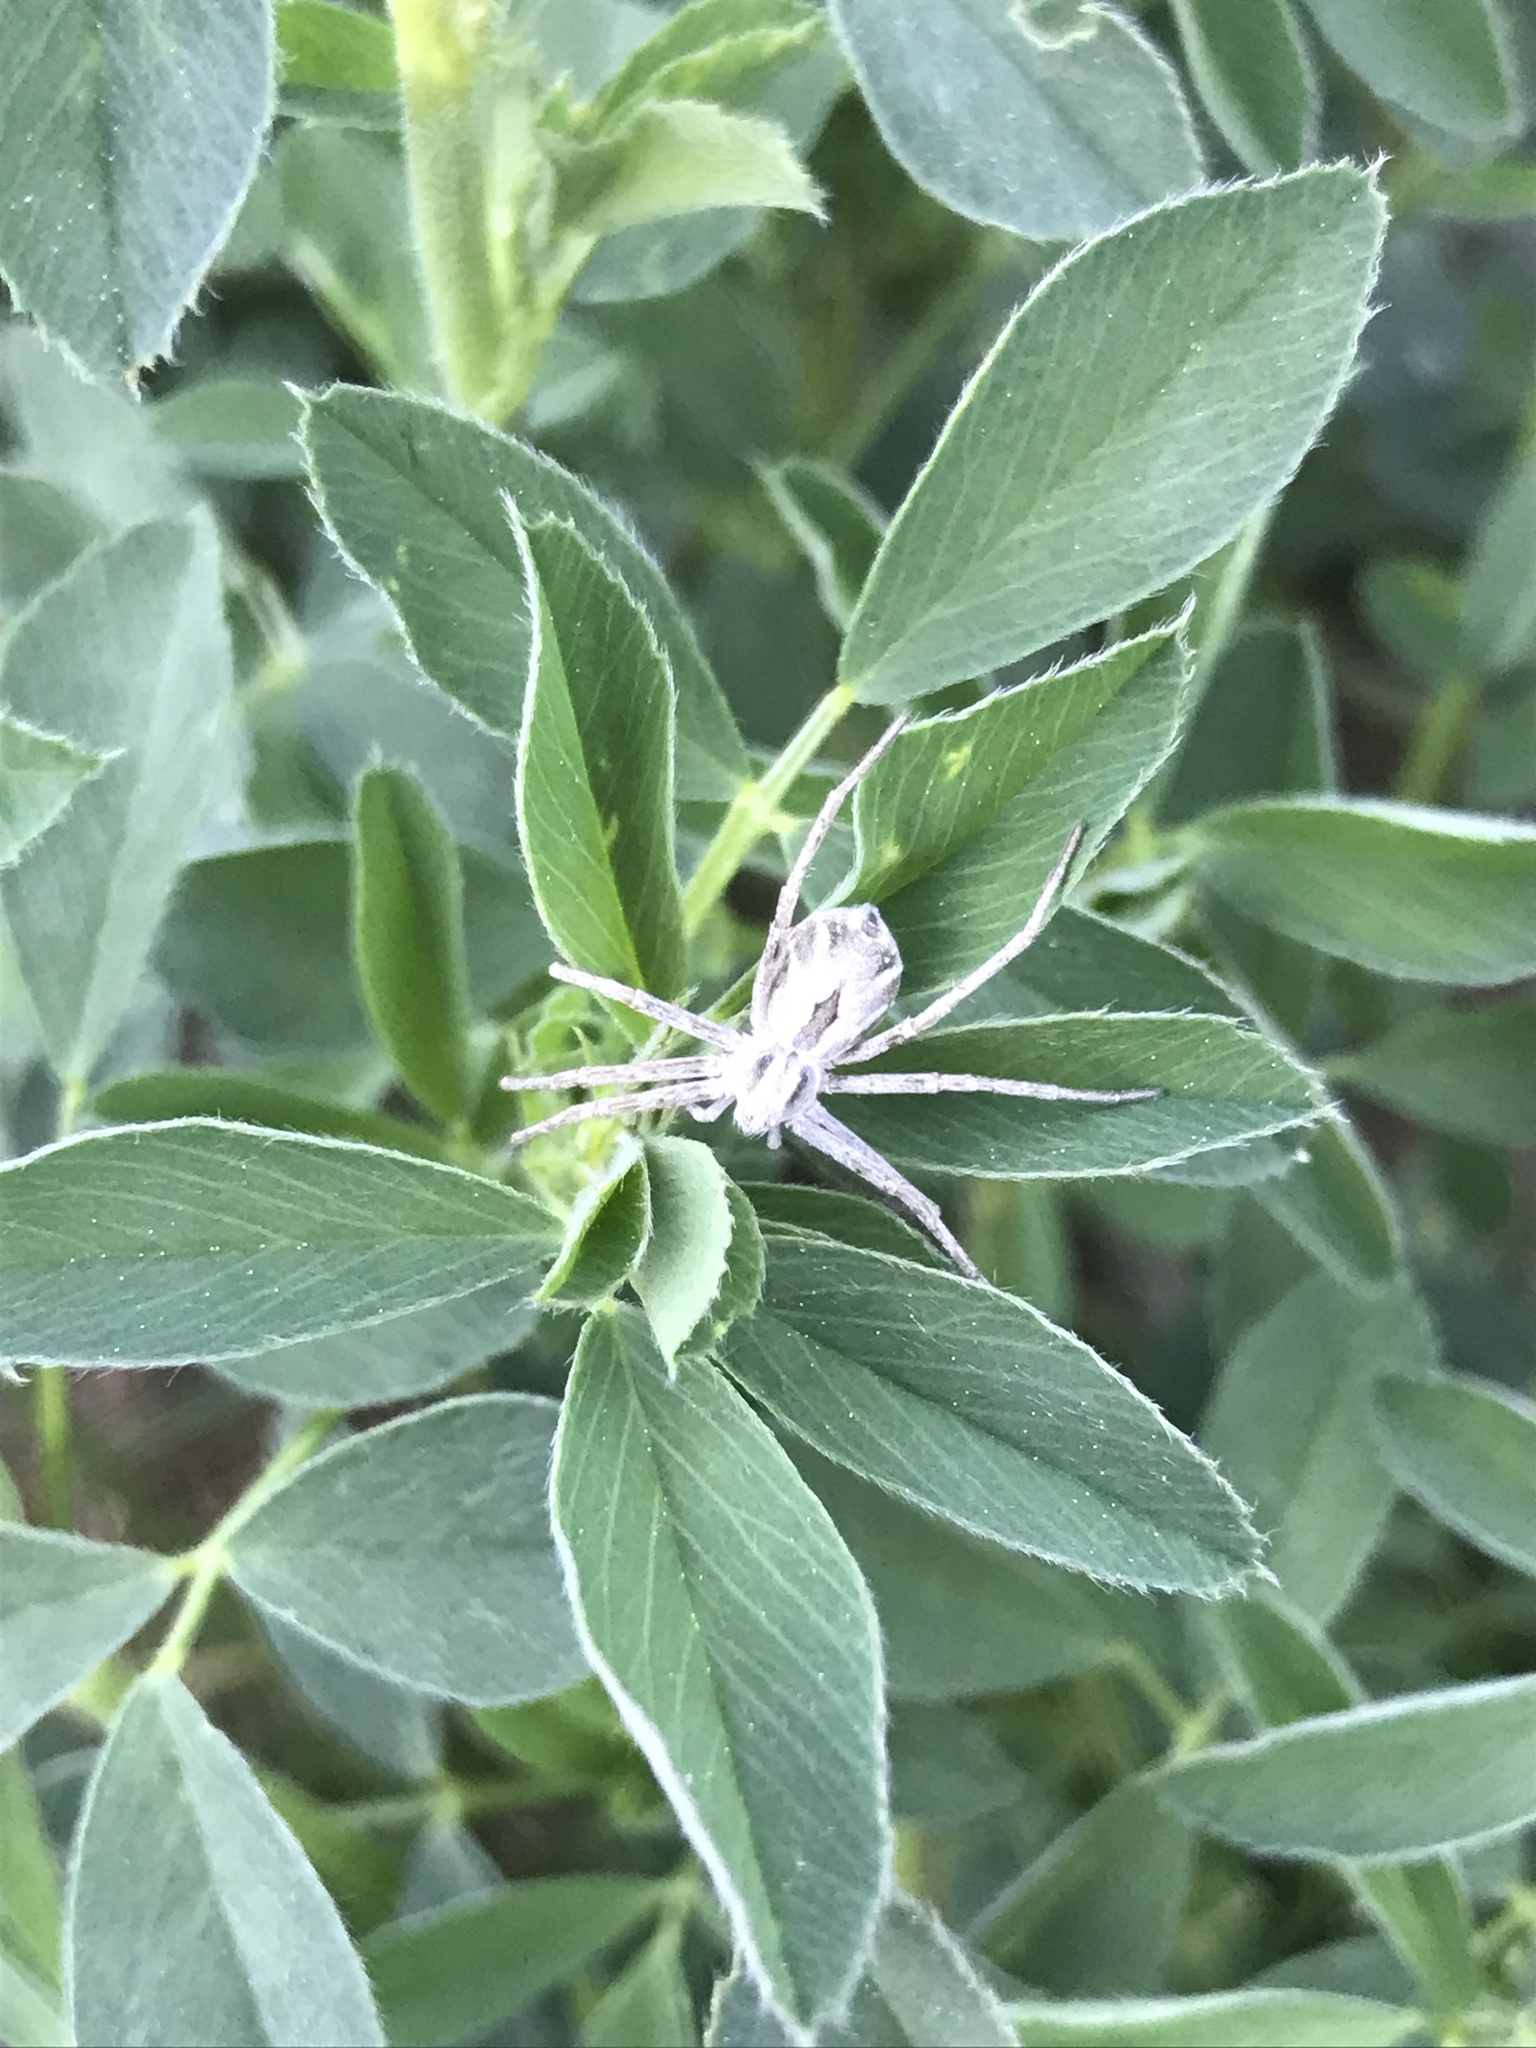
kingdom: Animalia
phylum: Arthropoda
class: Arachnida
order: Araneae
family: Philodromidae
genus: Rhysodromus
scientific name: Rhysodromus histrio
